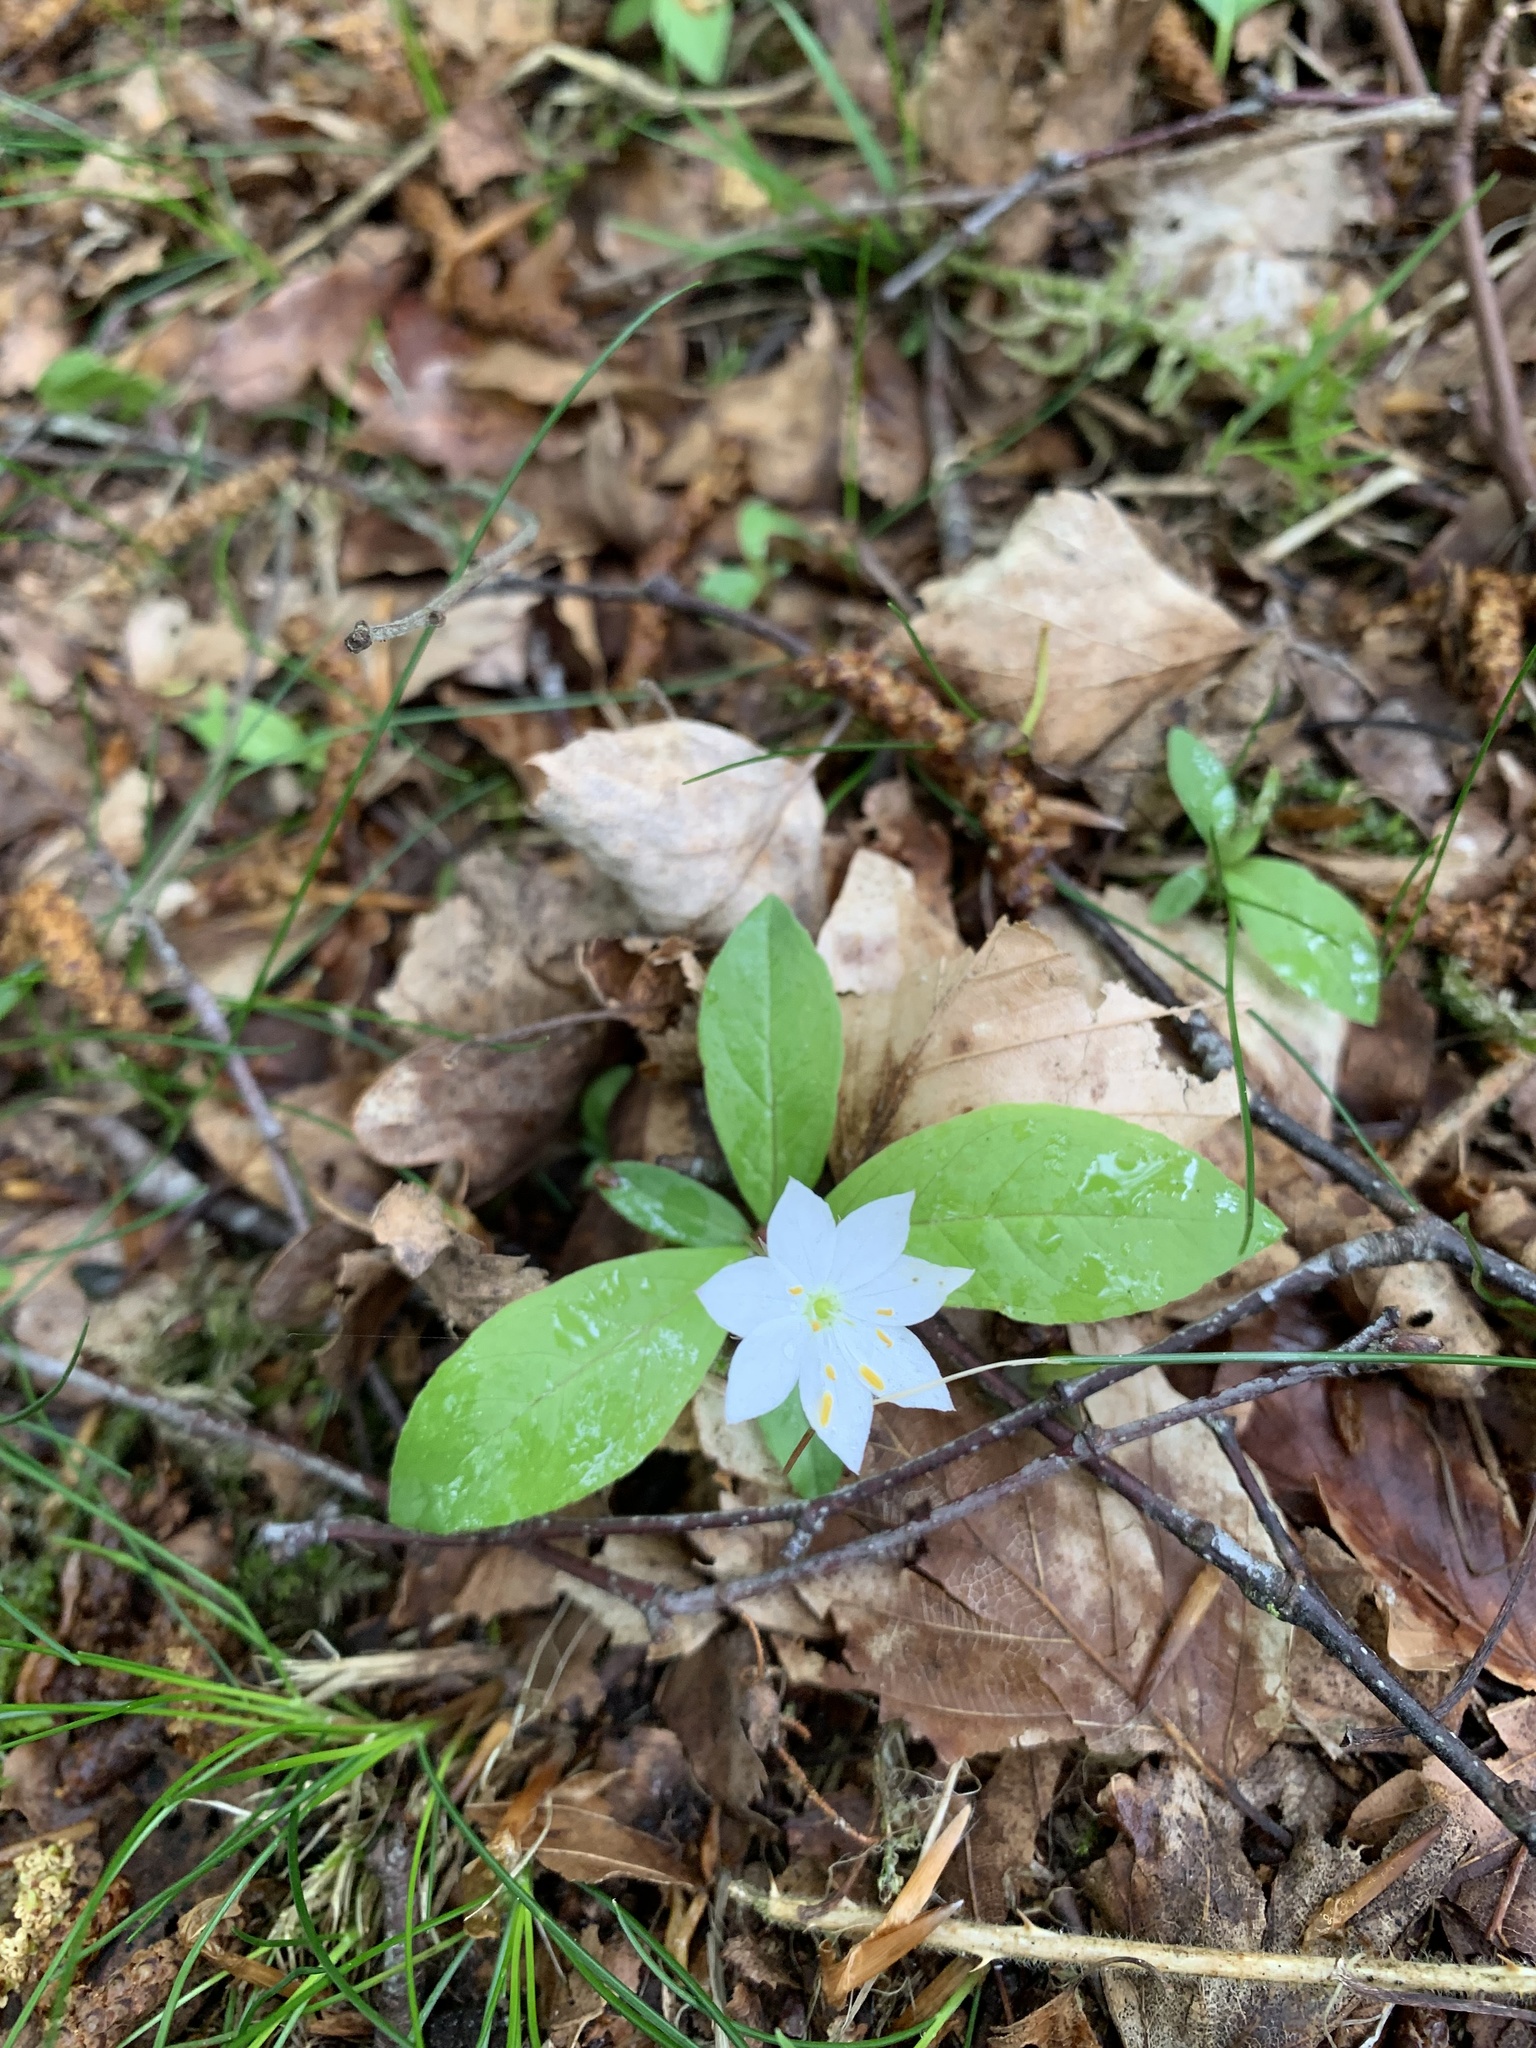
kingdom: Plantae
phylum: Tracheophyta
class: Magnoliopsida
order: Ericales
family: Primulaceae
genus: Lysimachia
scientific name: Lysimachia europaea
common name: Arctic starflower
